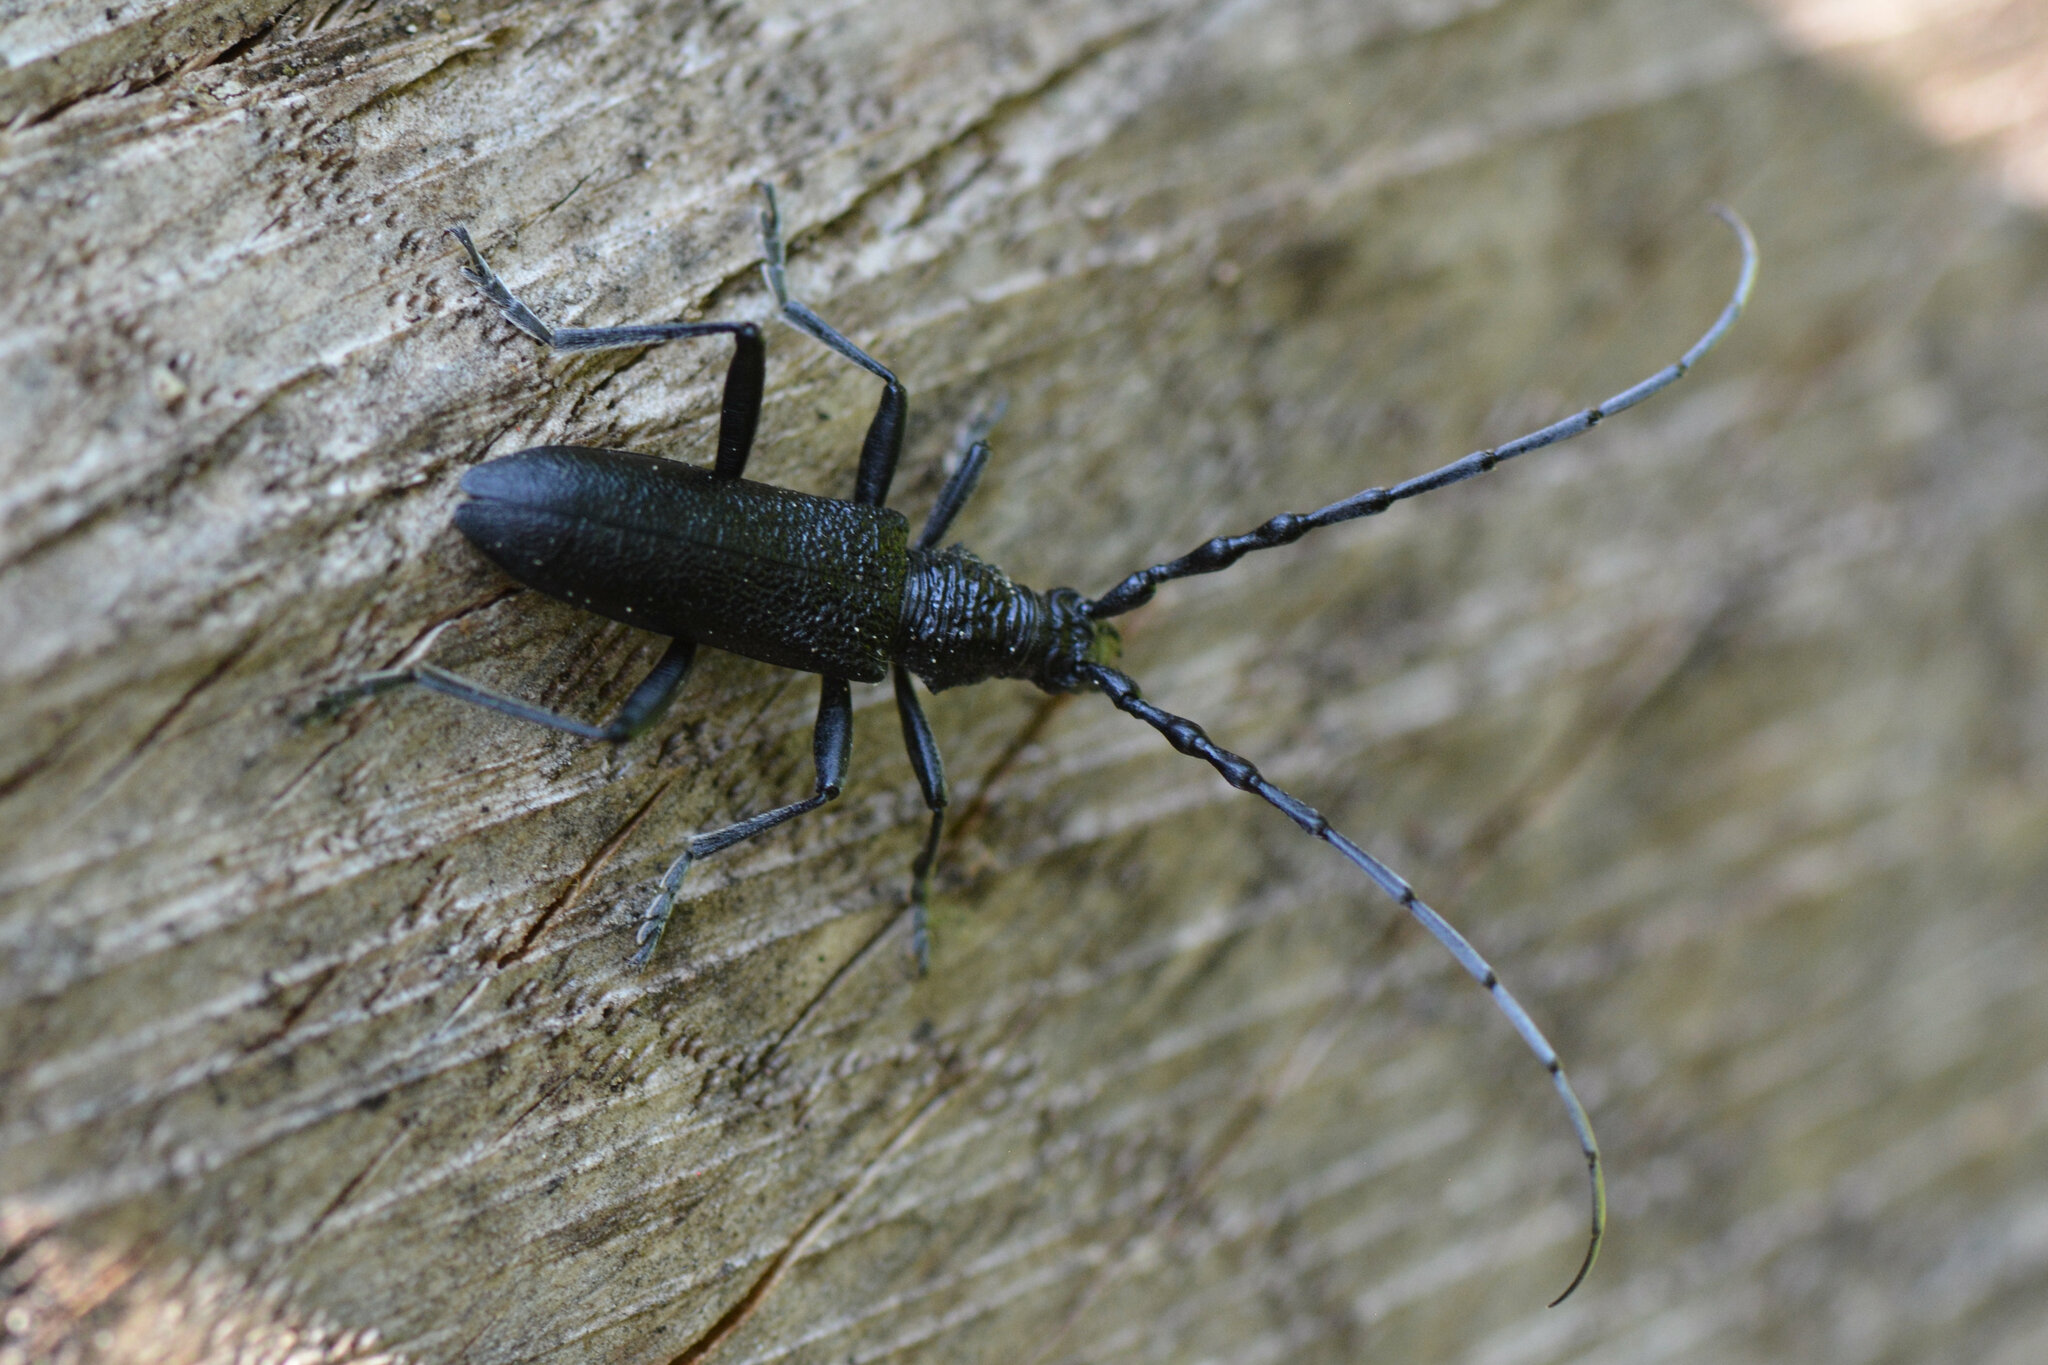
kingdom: Animalia
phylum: Arthropoda
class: Insecta
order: Coleoptera
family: Cerambycidae
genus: Cerambyx
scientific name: Cerambyx scopolii
